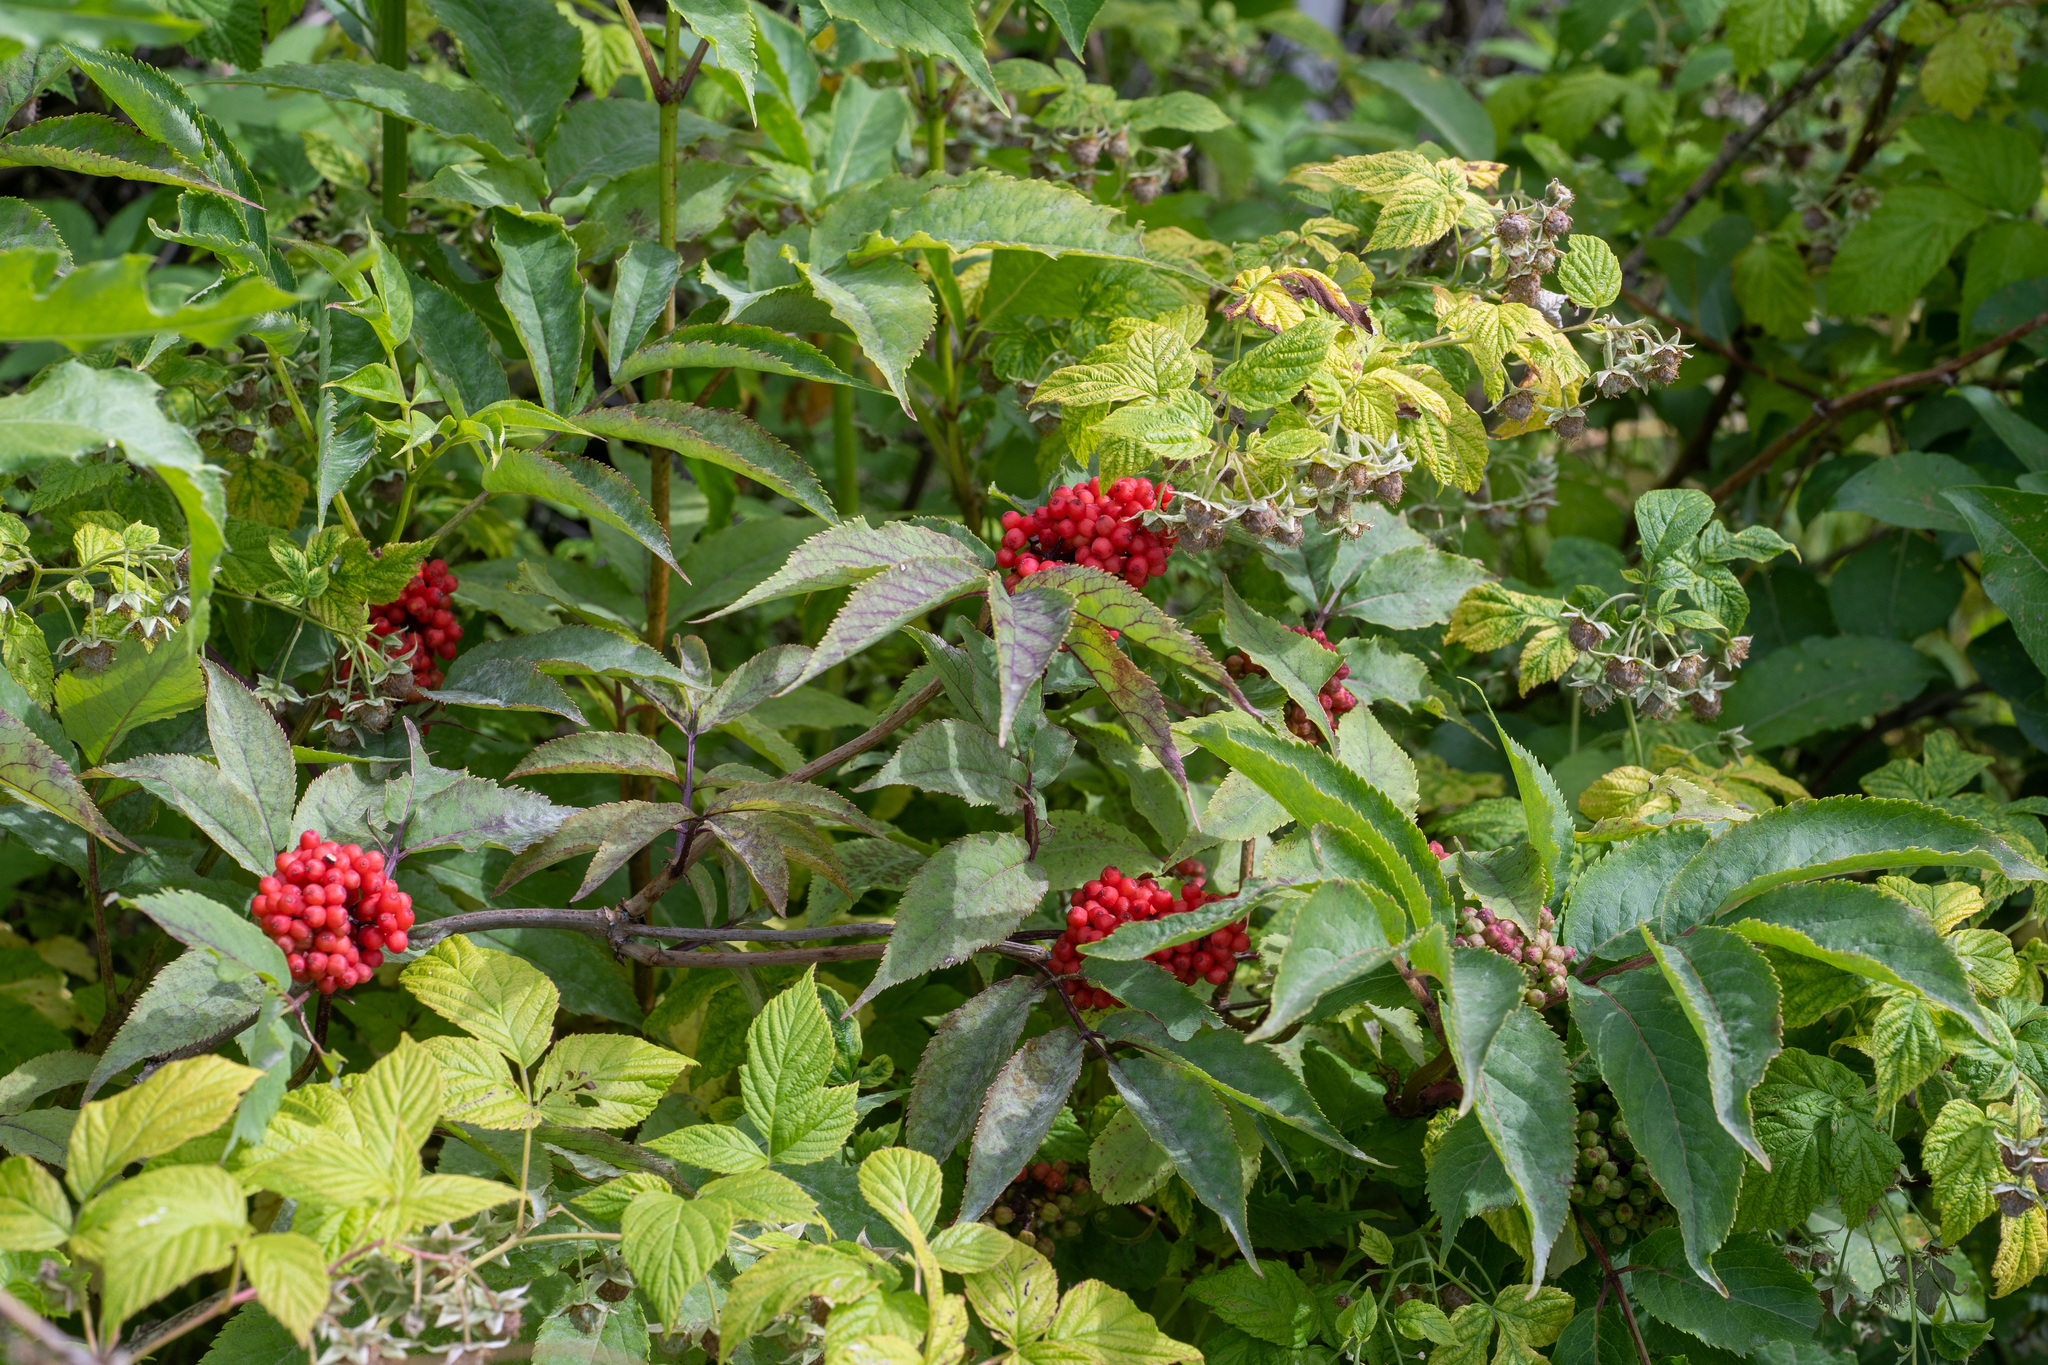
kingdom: Plantae
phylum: Tracheophyta
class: Magnoliopsida
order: Dipsacales
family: Viburnaceae
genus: Sambucus
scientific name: Sambucus racemosa
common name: Red-berried elder
